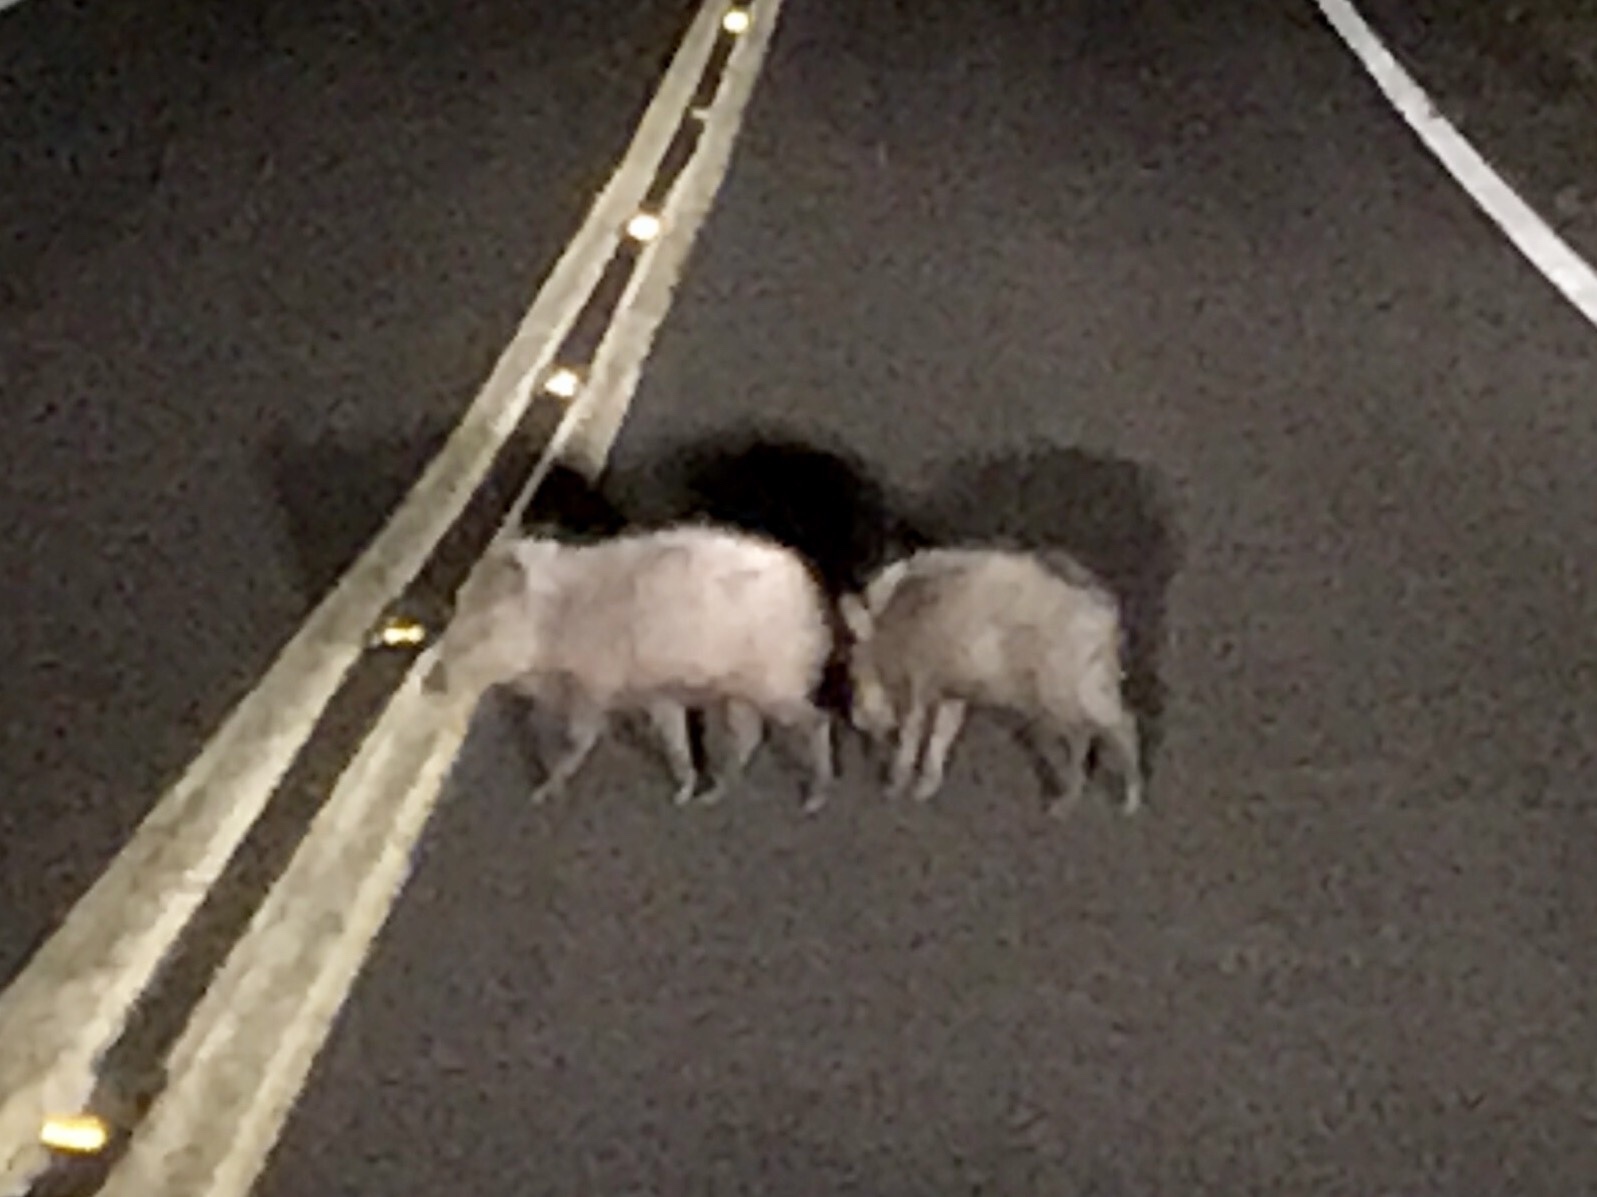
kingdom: Animalia
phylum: Chordata
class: Mammalia
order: Artiodactyla
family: Tayassuidae
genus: Pecari
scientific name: Pecari tajacu
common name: Collared peccary
